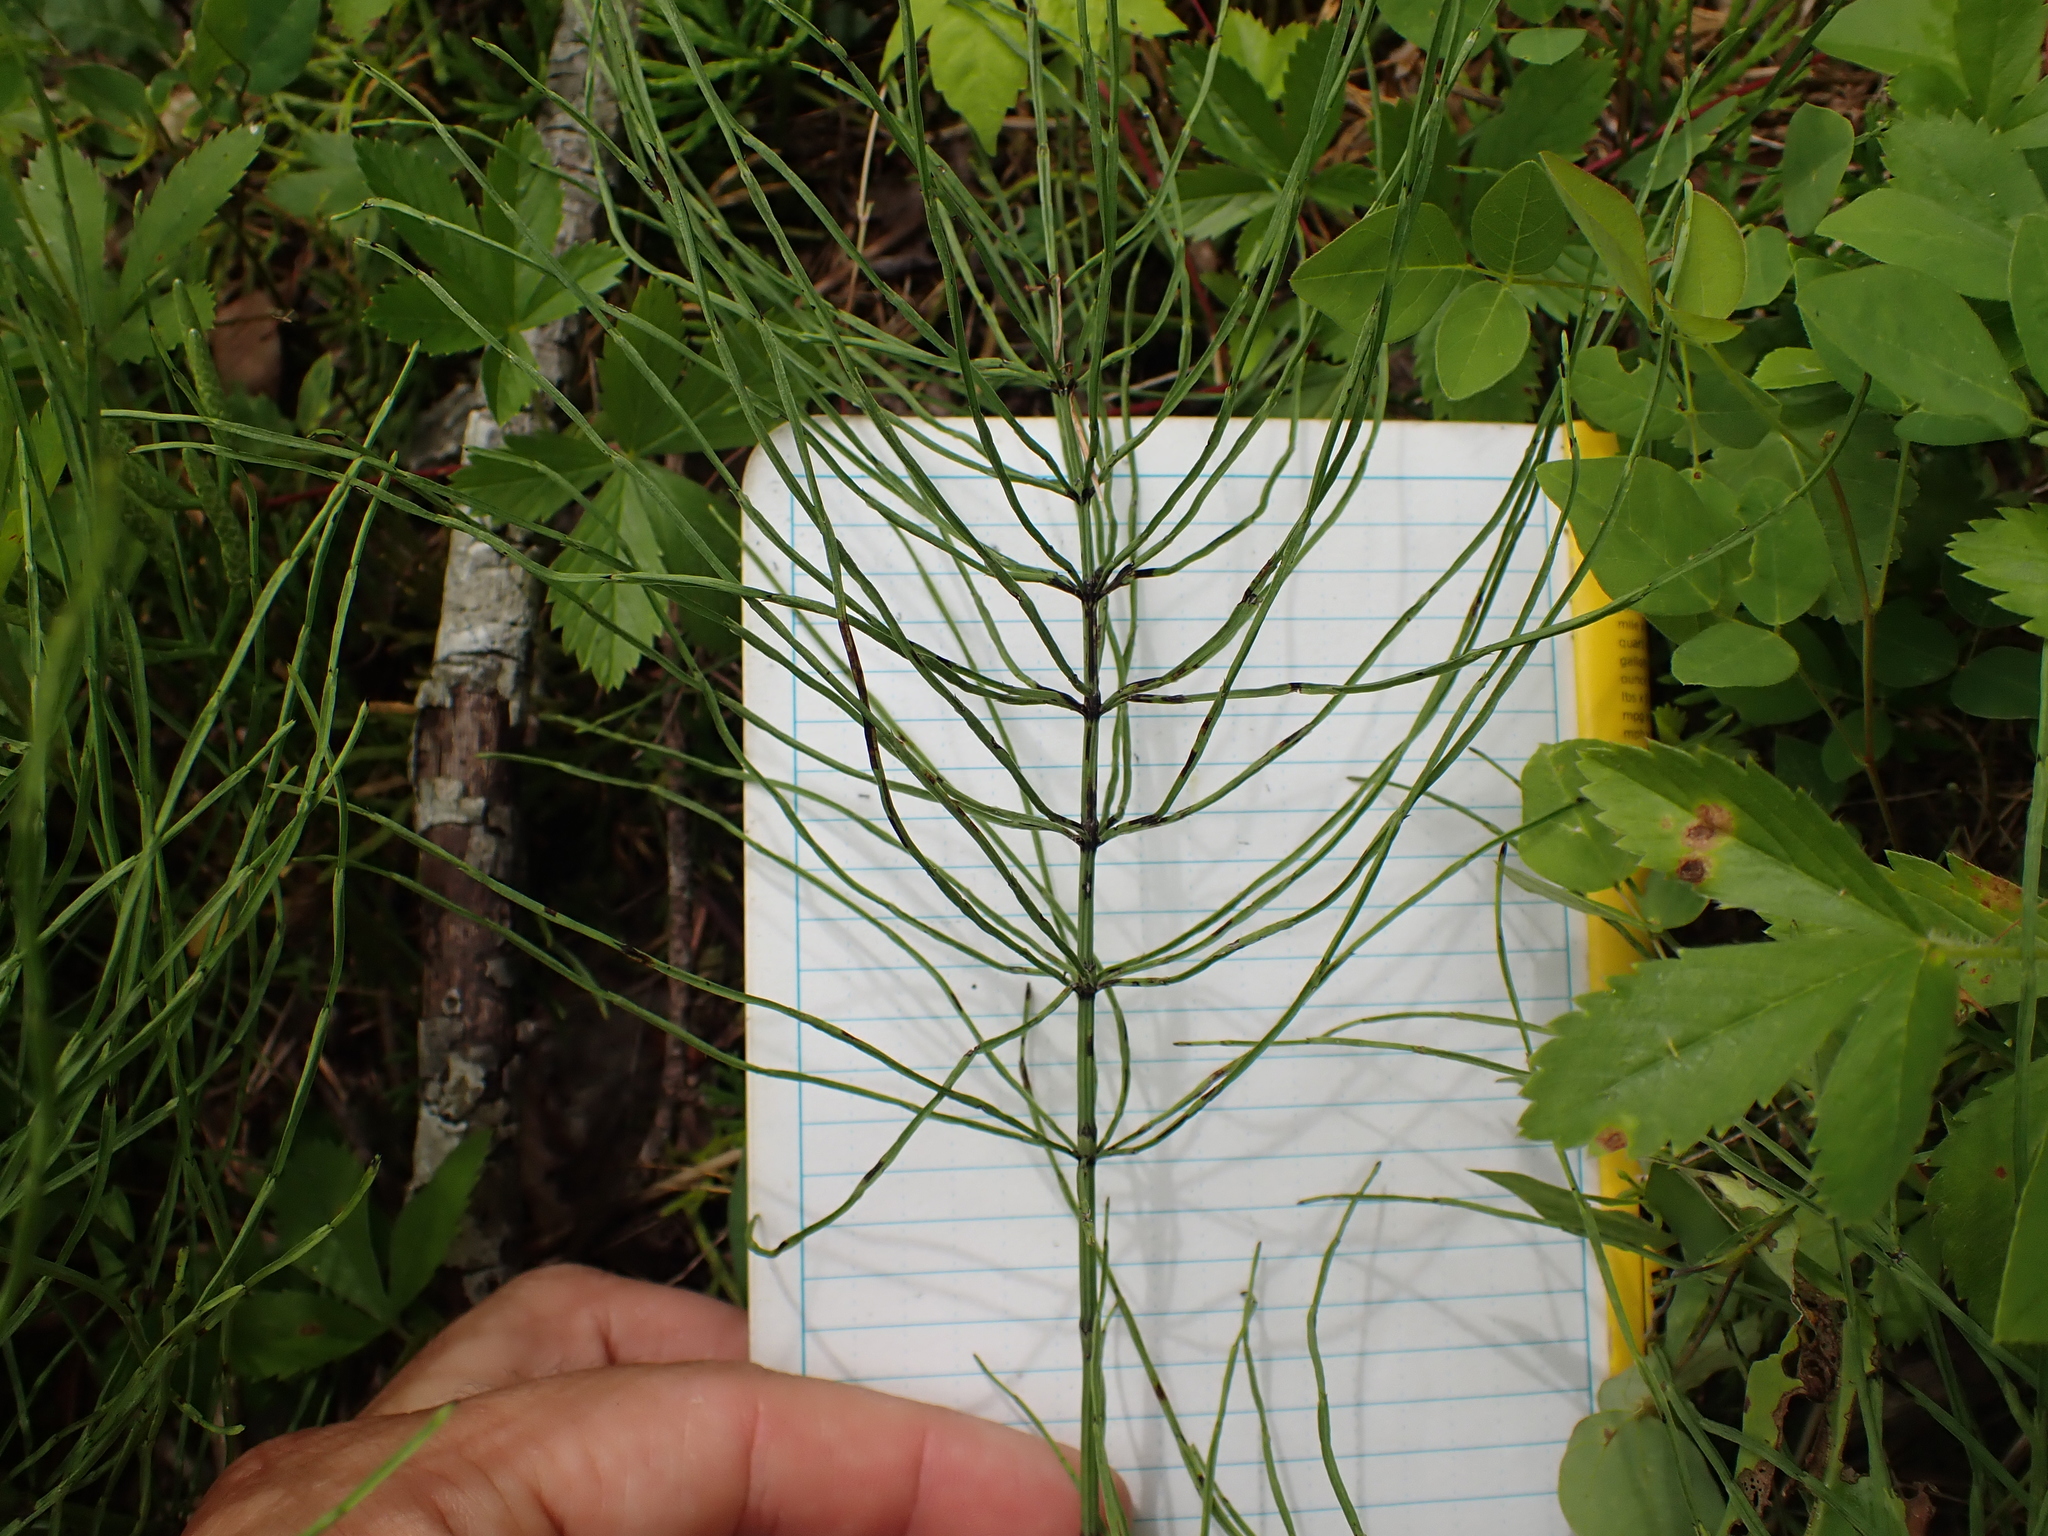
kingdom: Plantae
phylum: Tracheophyta
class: Polypodiopsida
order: Equisetales
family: Equisetaceae
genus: Equisetum
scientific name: Equisetum arvense
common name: Field horsetail
